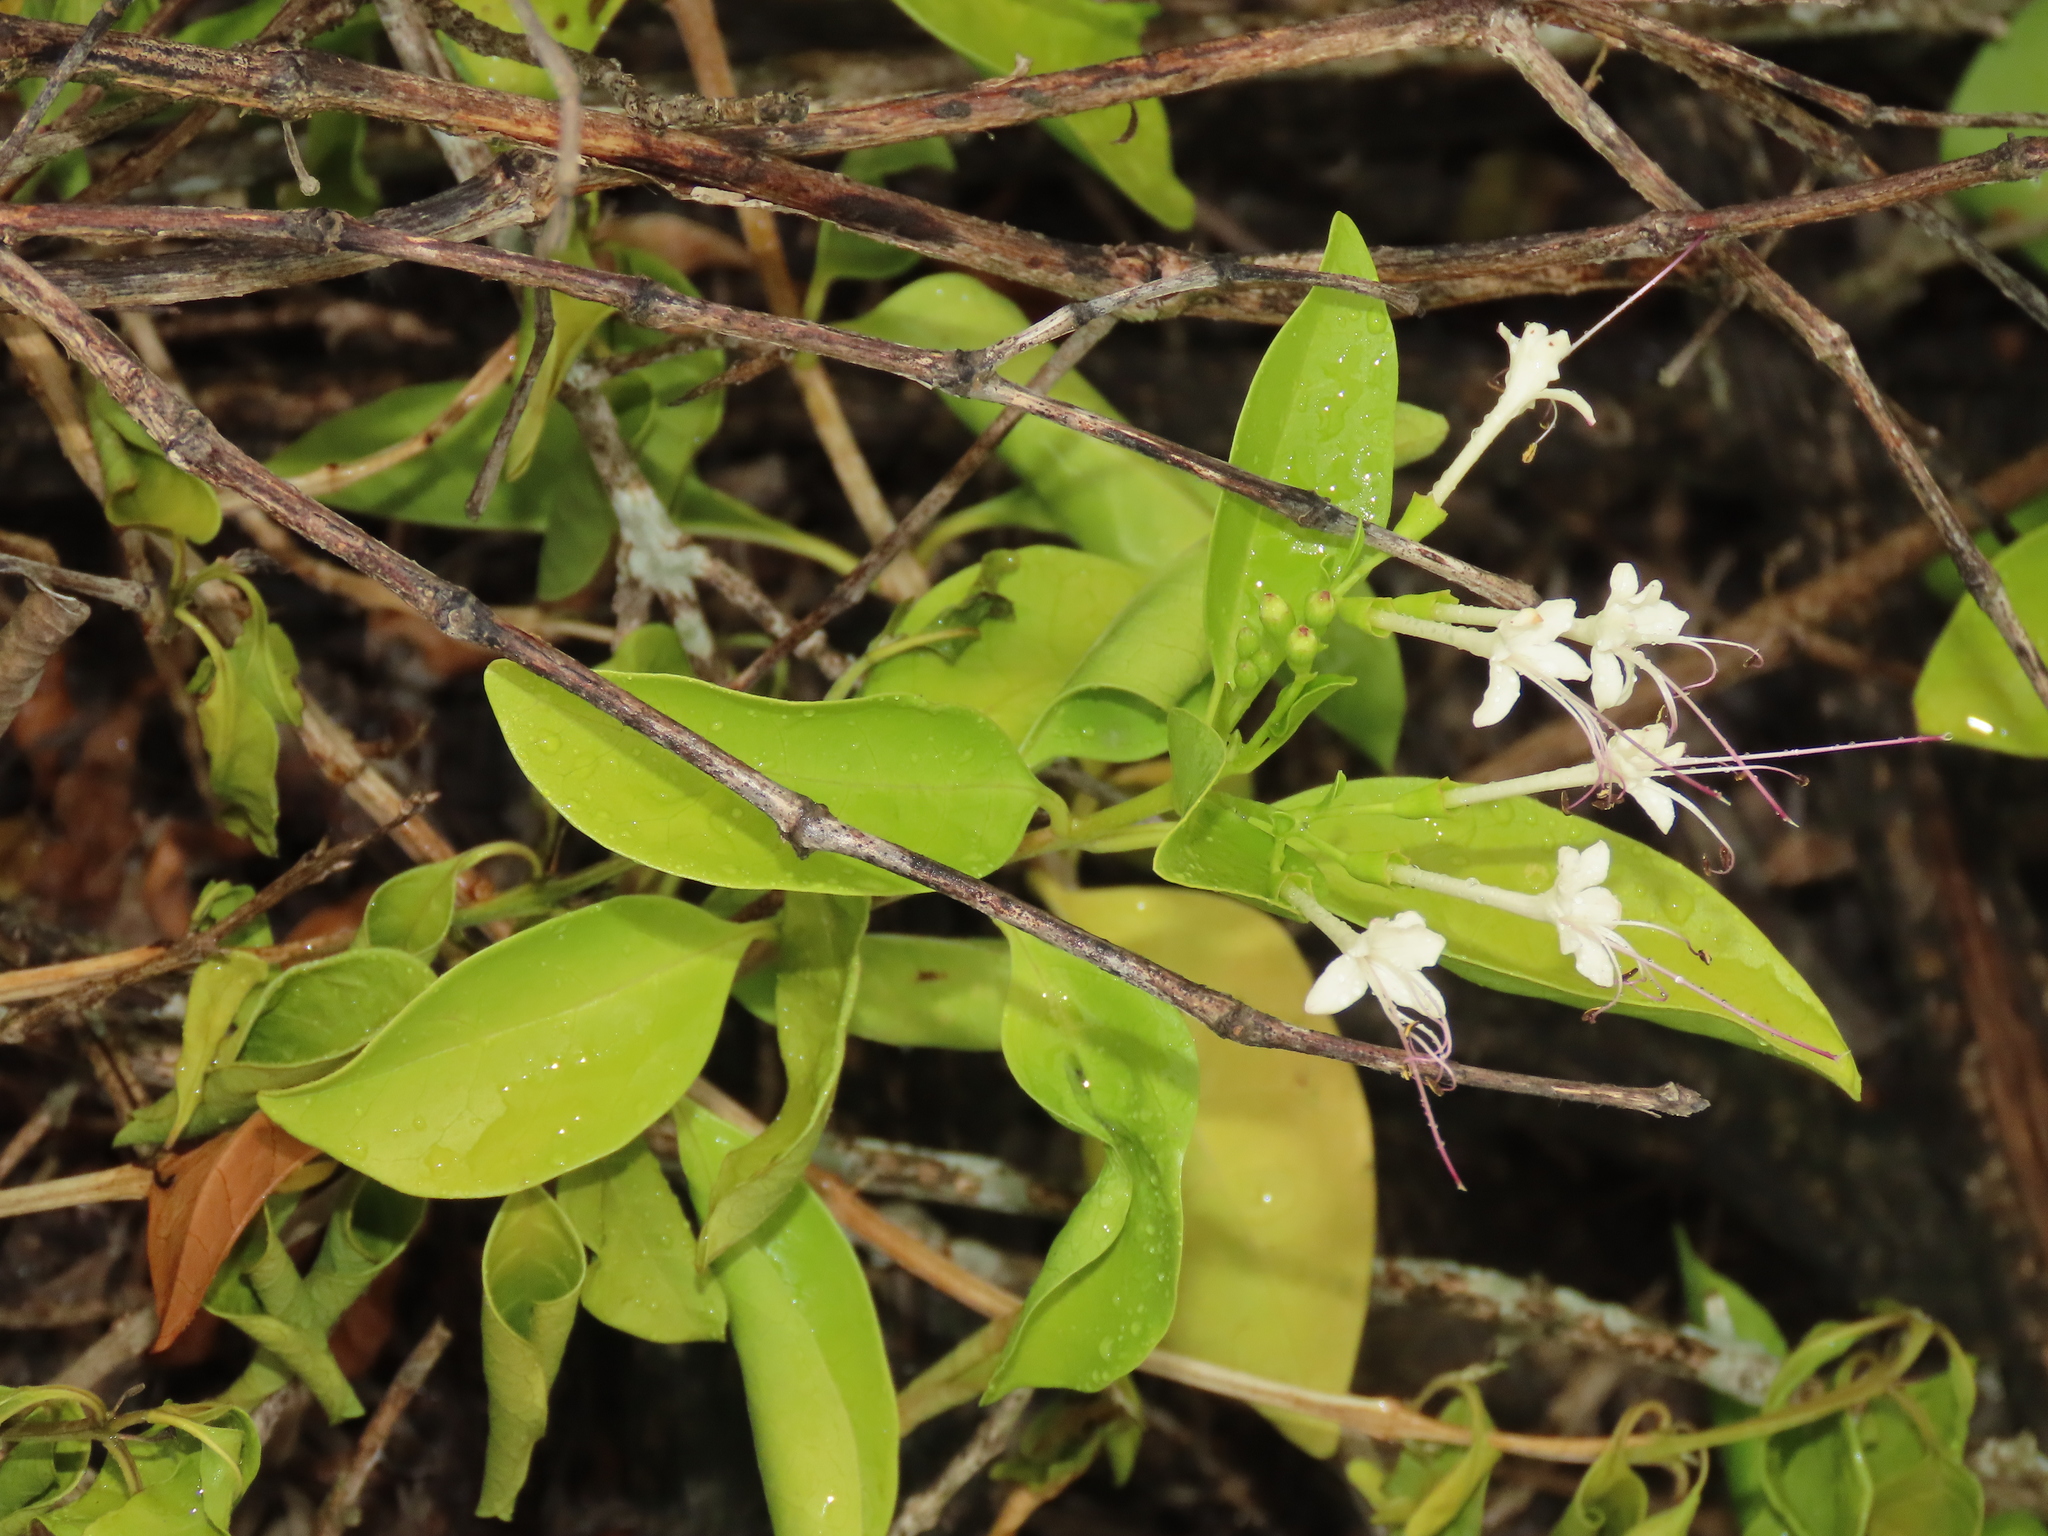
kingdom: Plantae
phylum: Tracheophyta
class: Magnoliopsida
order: Lamiales
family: Lamiaceae
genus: Volkameria
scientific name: Volkameria inermis
